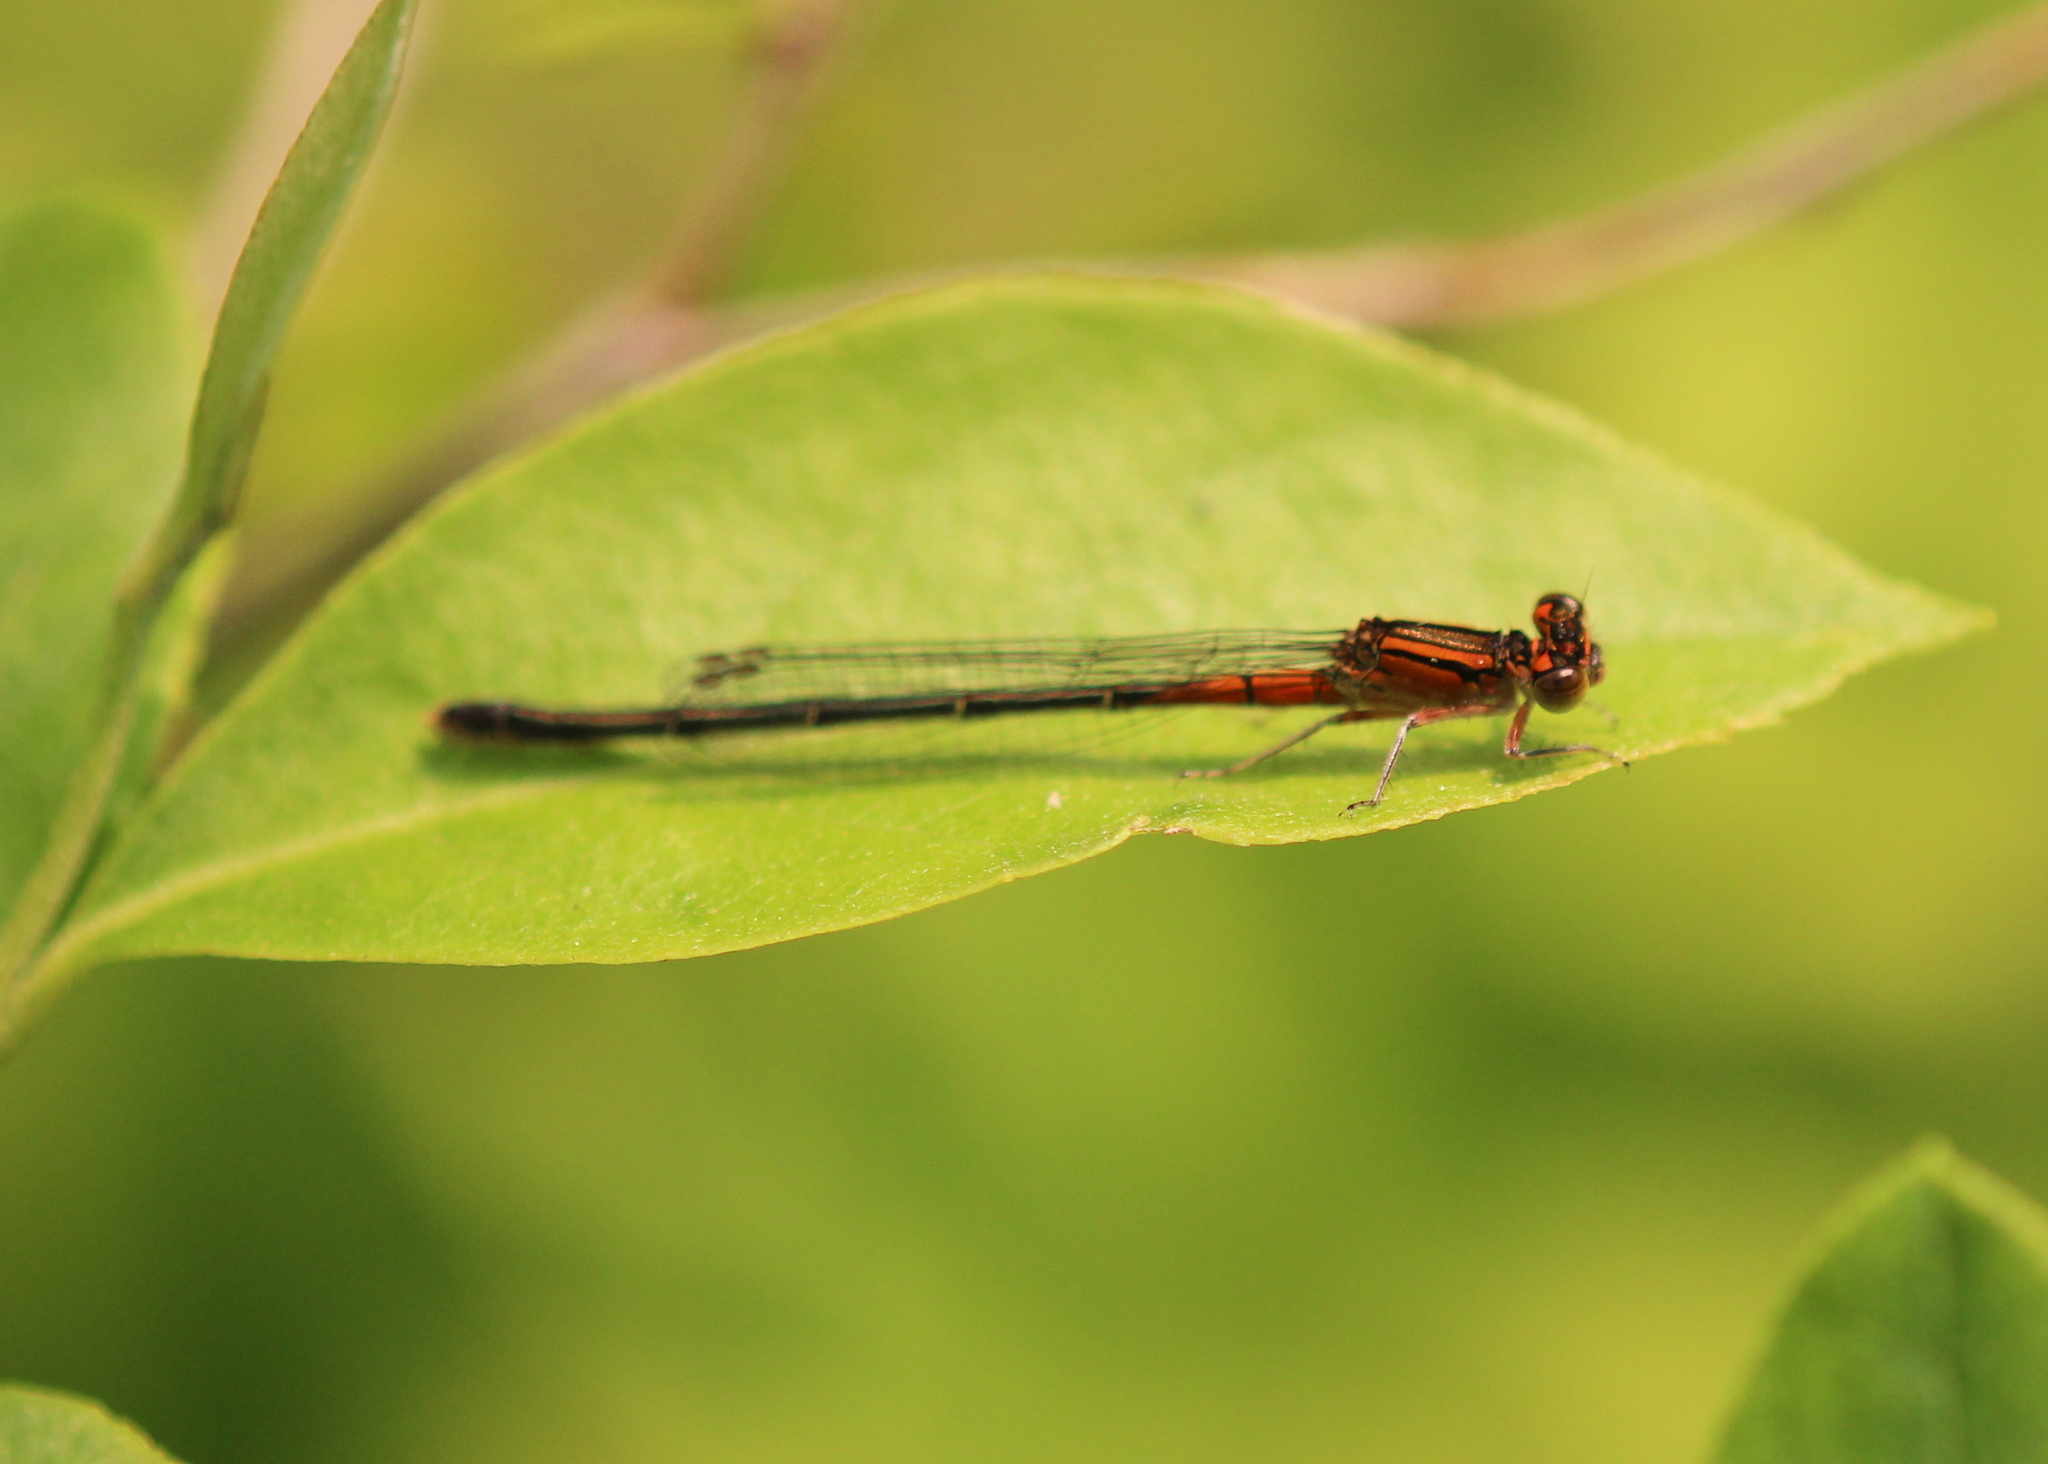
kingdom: Animalia
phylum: Arthropoda
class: Insecta
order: Odonata
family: Coenagrionidae
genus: Ischnura
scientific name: Ischnura verticalis
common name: Eastern forktail
